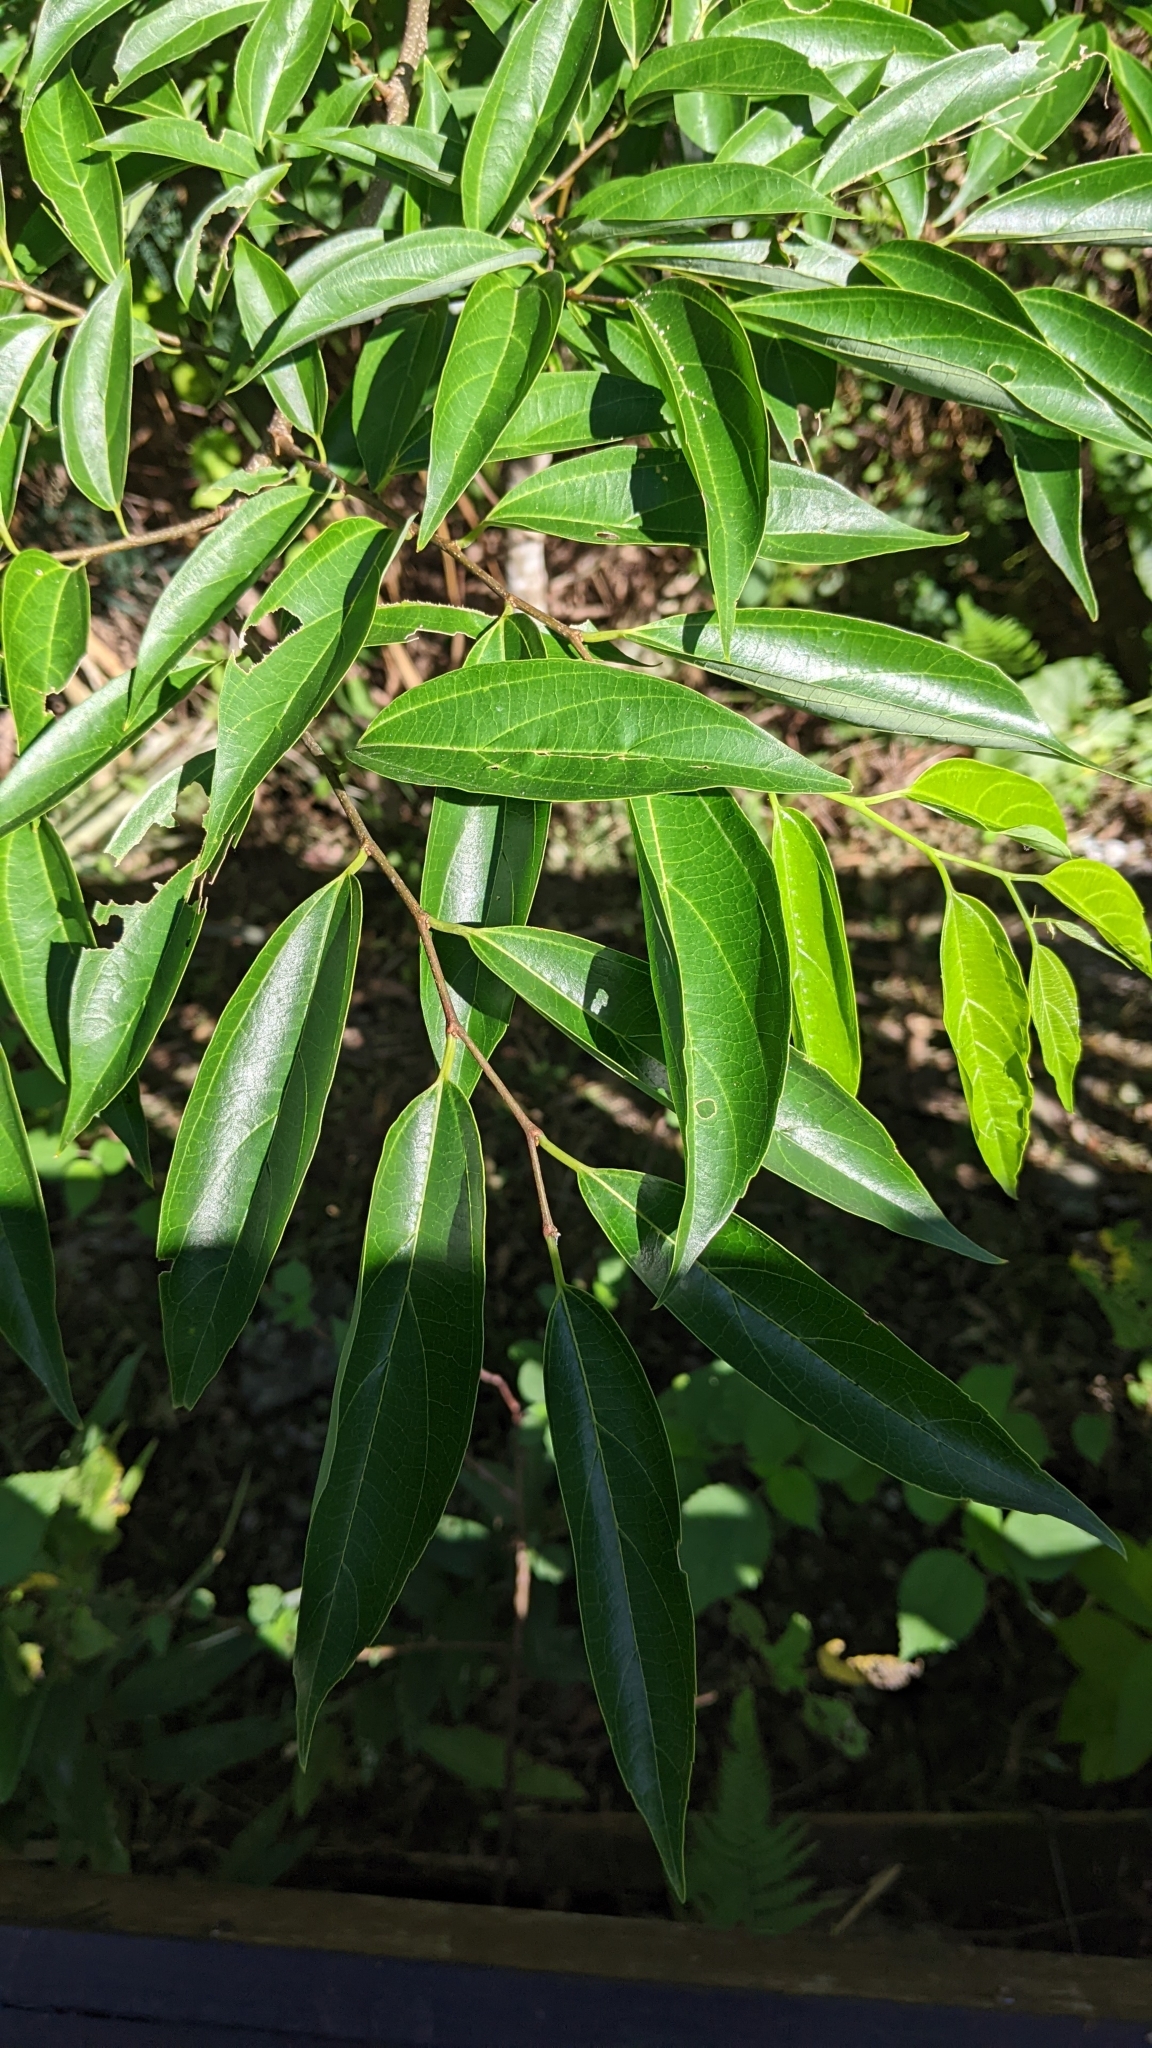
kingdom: Plantae
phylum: Tracheophyta
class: Magnoliopsida
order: Rosales
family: Cannabaceae
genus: Celtis
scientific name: Celtis tetrandra
